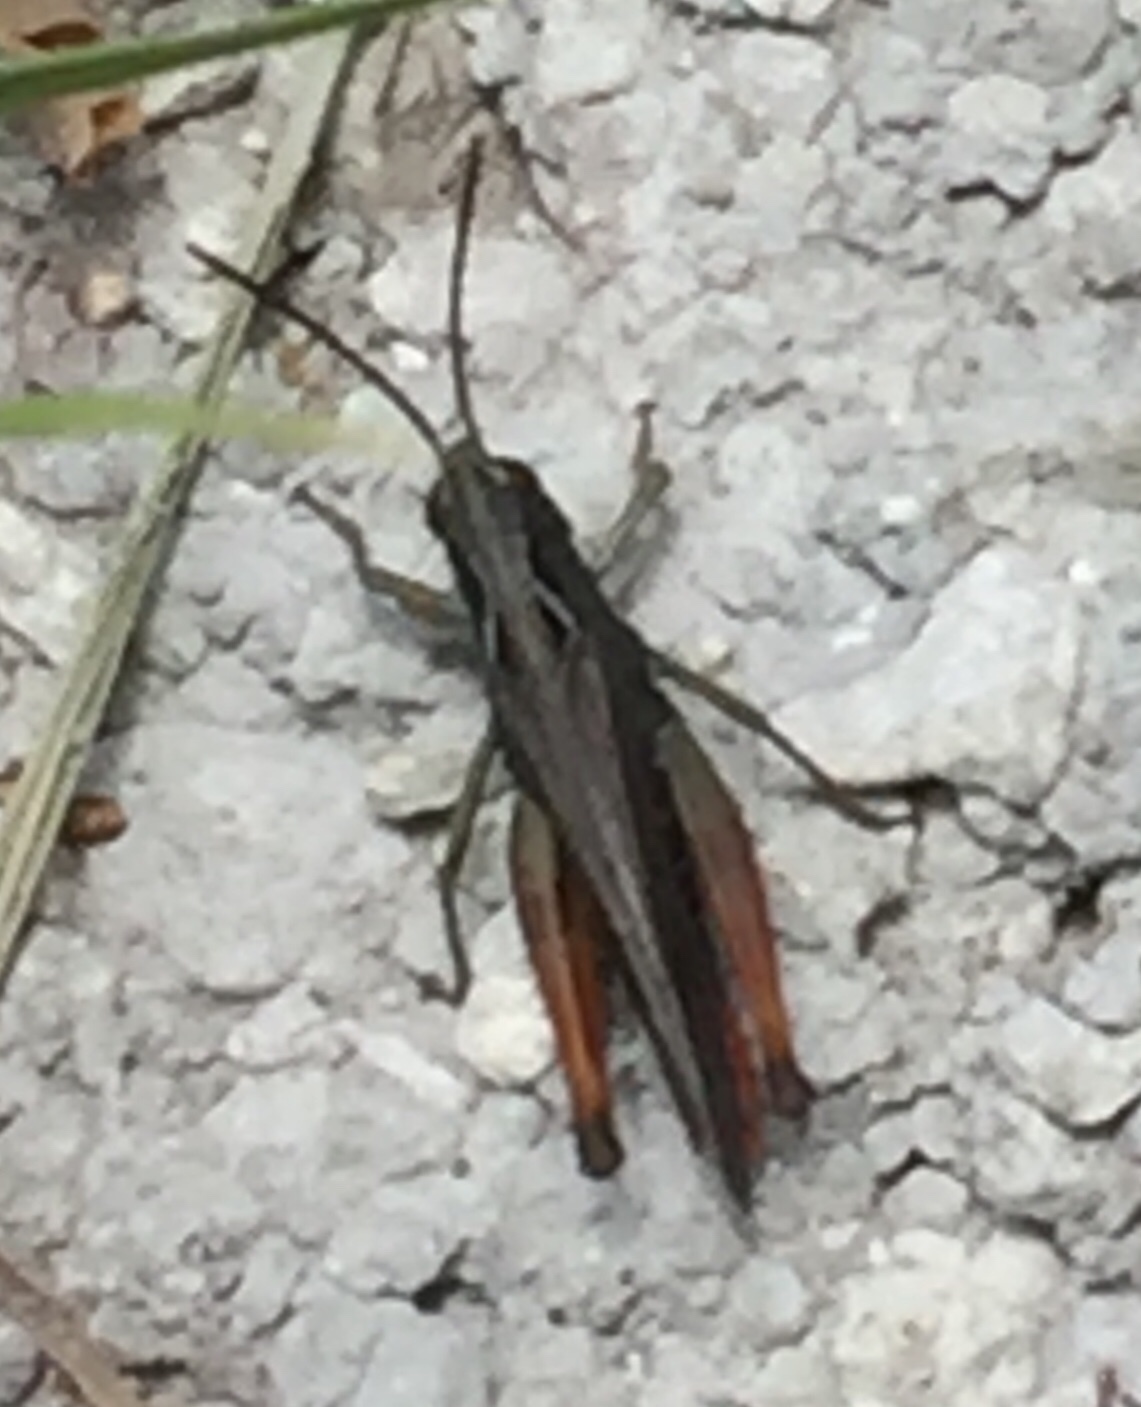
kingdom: Animalia
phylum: Arthropoda
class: Insecta
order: Orthoptera
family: Acrididae
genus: Omocestus
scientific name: Omocestus rufipes
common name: Woodland grasshopper
